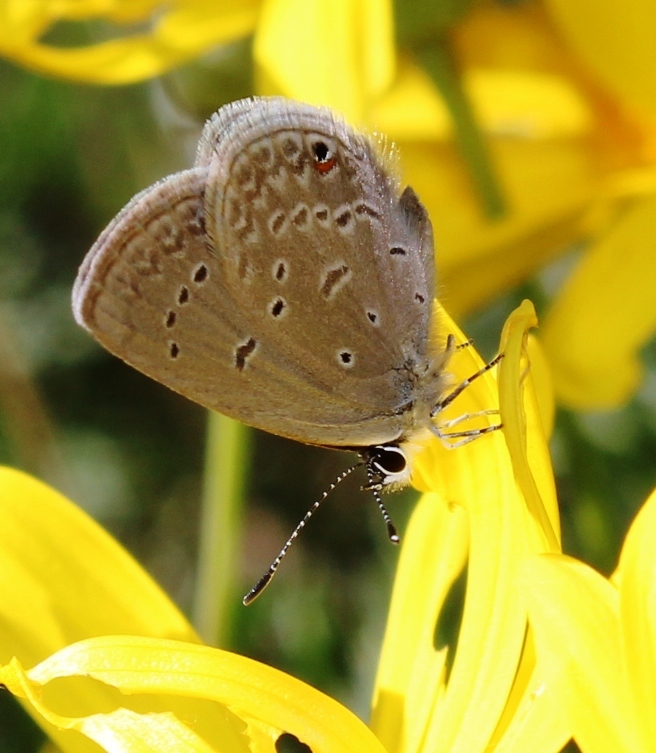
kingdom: Animalia
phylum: Arthropoda
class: Insecta
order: Lepidoptera
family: Lycaenidae
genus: Eicochrysops
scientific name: Eicochrysops messapus
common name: Cupreous blue
